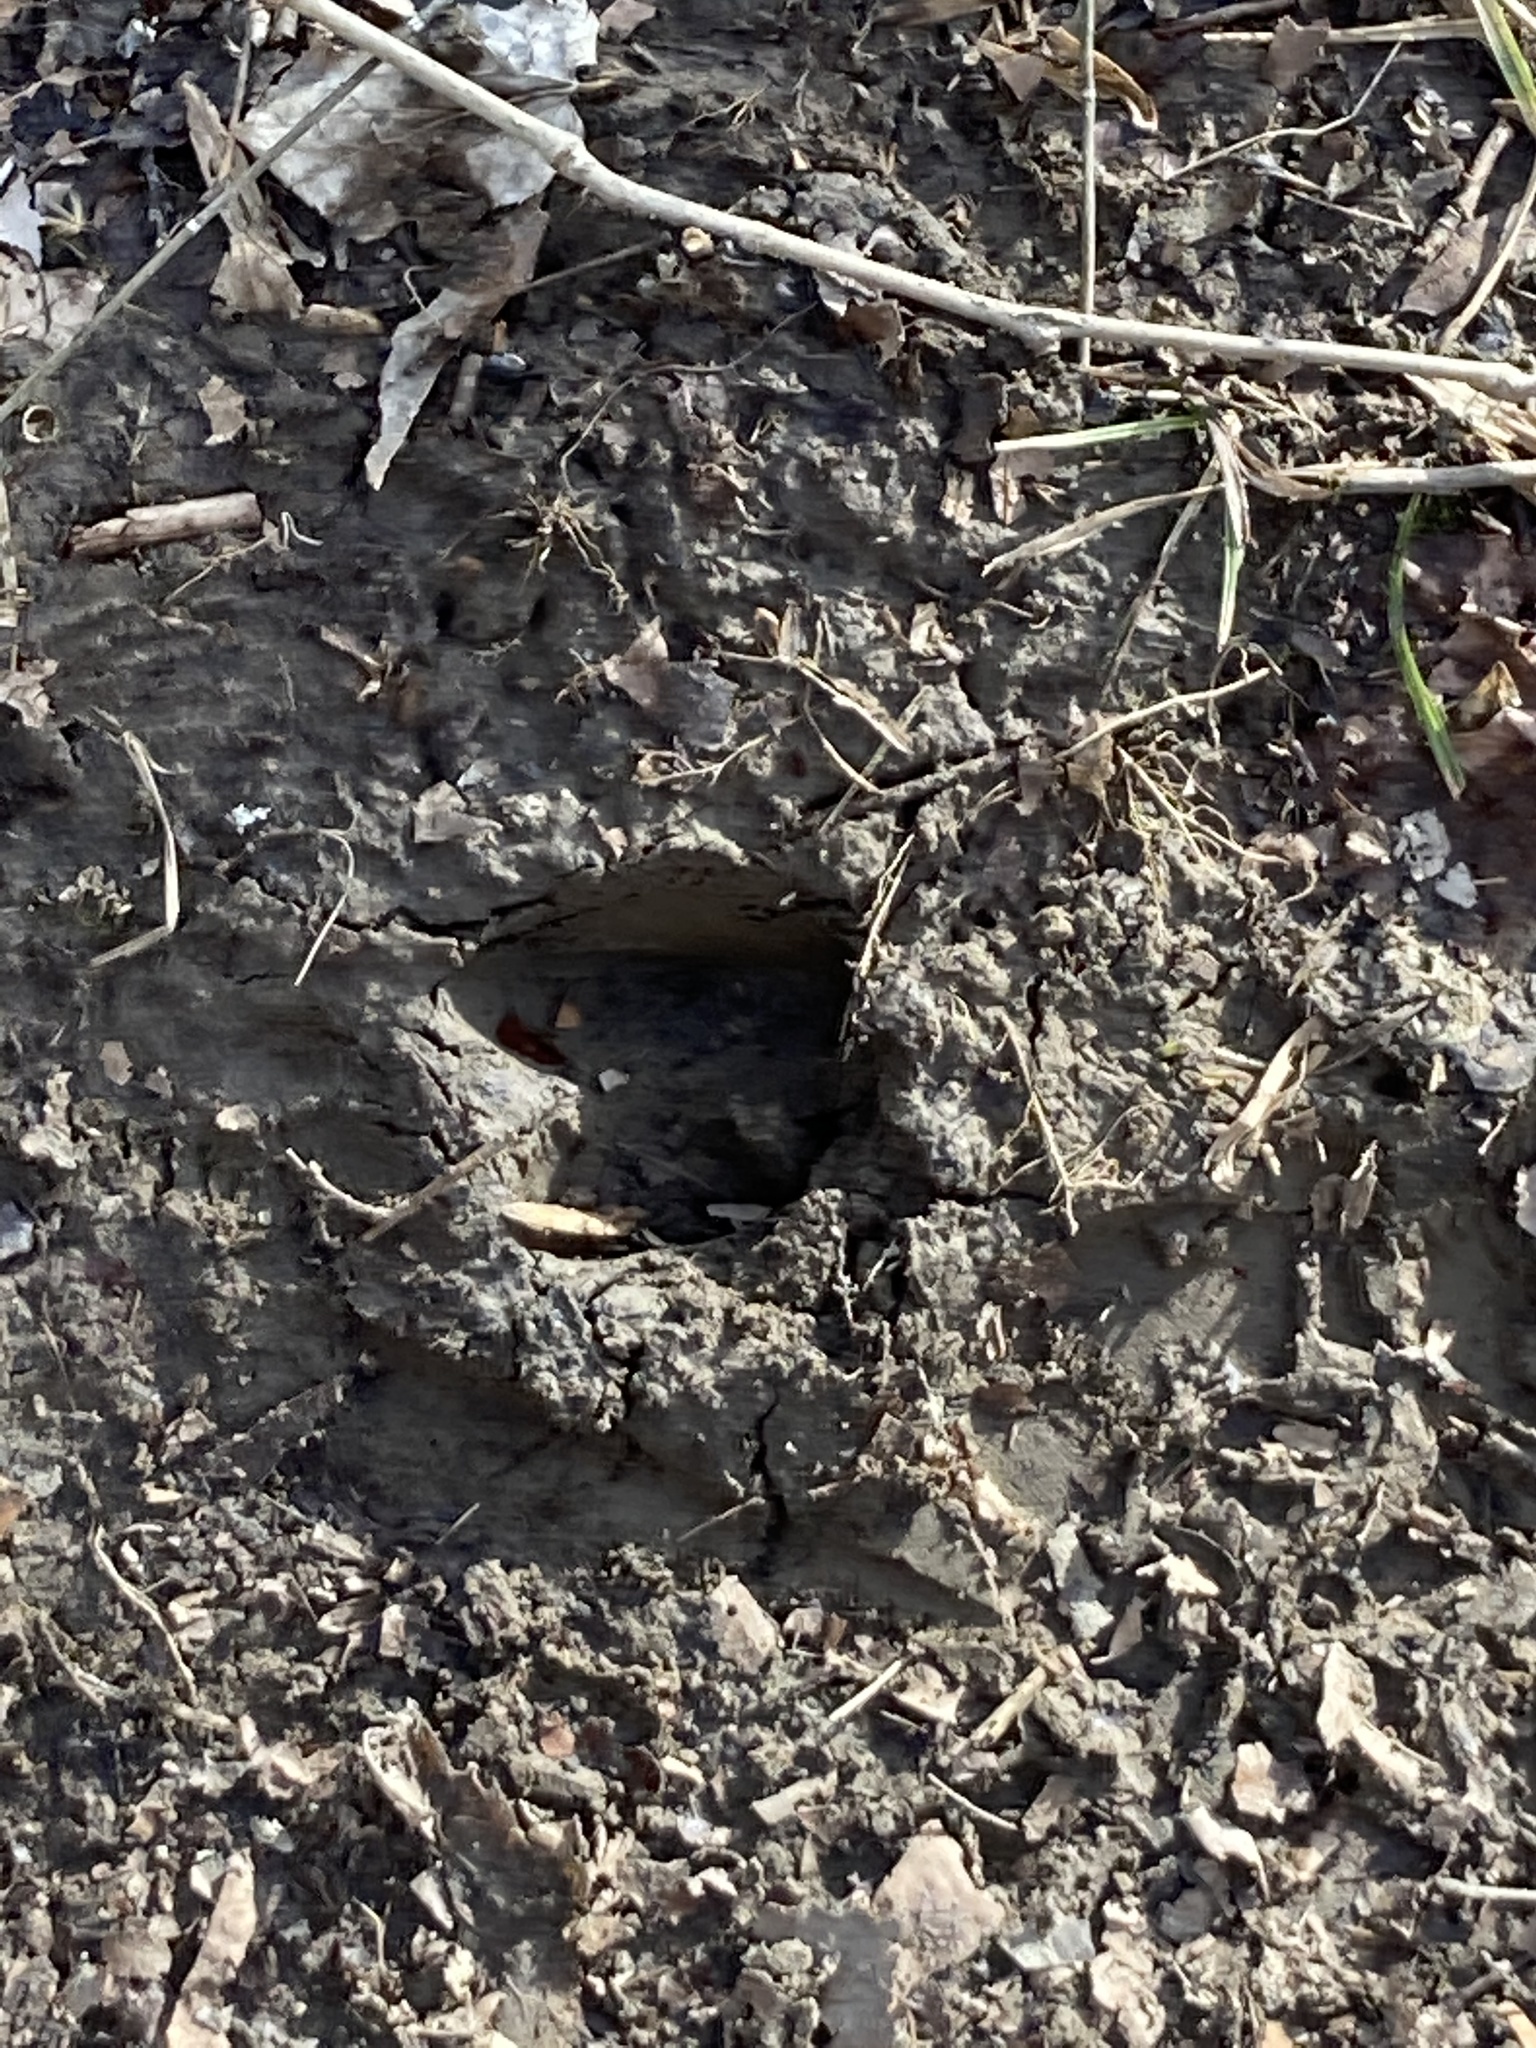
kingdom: Animalia
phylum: Chordata
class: Mammalia
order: Artiodactyla
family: Cervidae
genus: Odocoileus
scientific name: Odocoileus virginianus
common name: White-tailed deer
